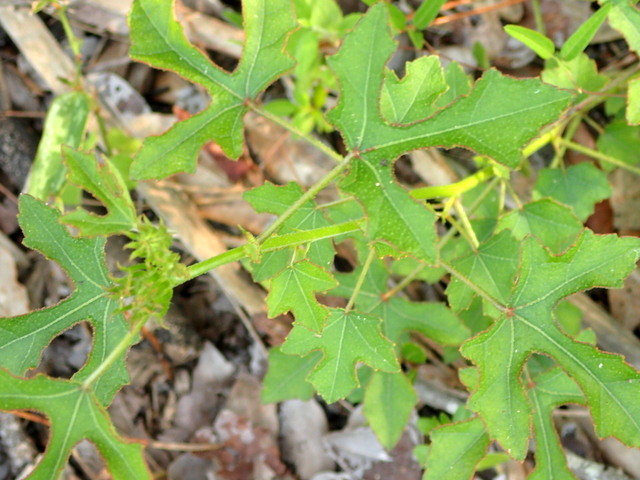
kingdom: Plantae
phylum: Tracheophyta
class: Magnoliopsida
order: Malvales
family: Malvaceae
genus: Hibiscus
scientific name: Hibiscus aculeatus
